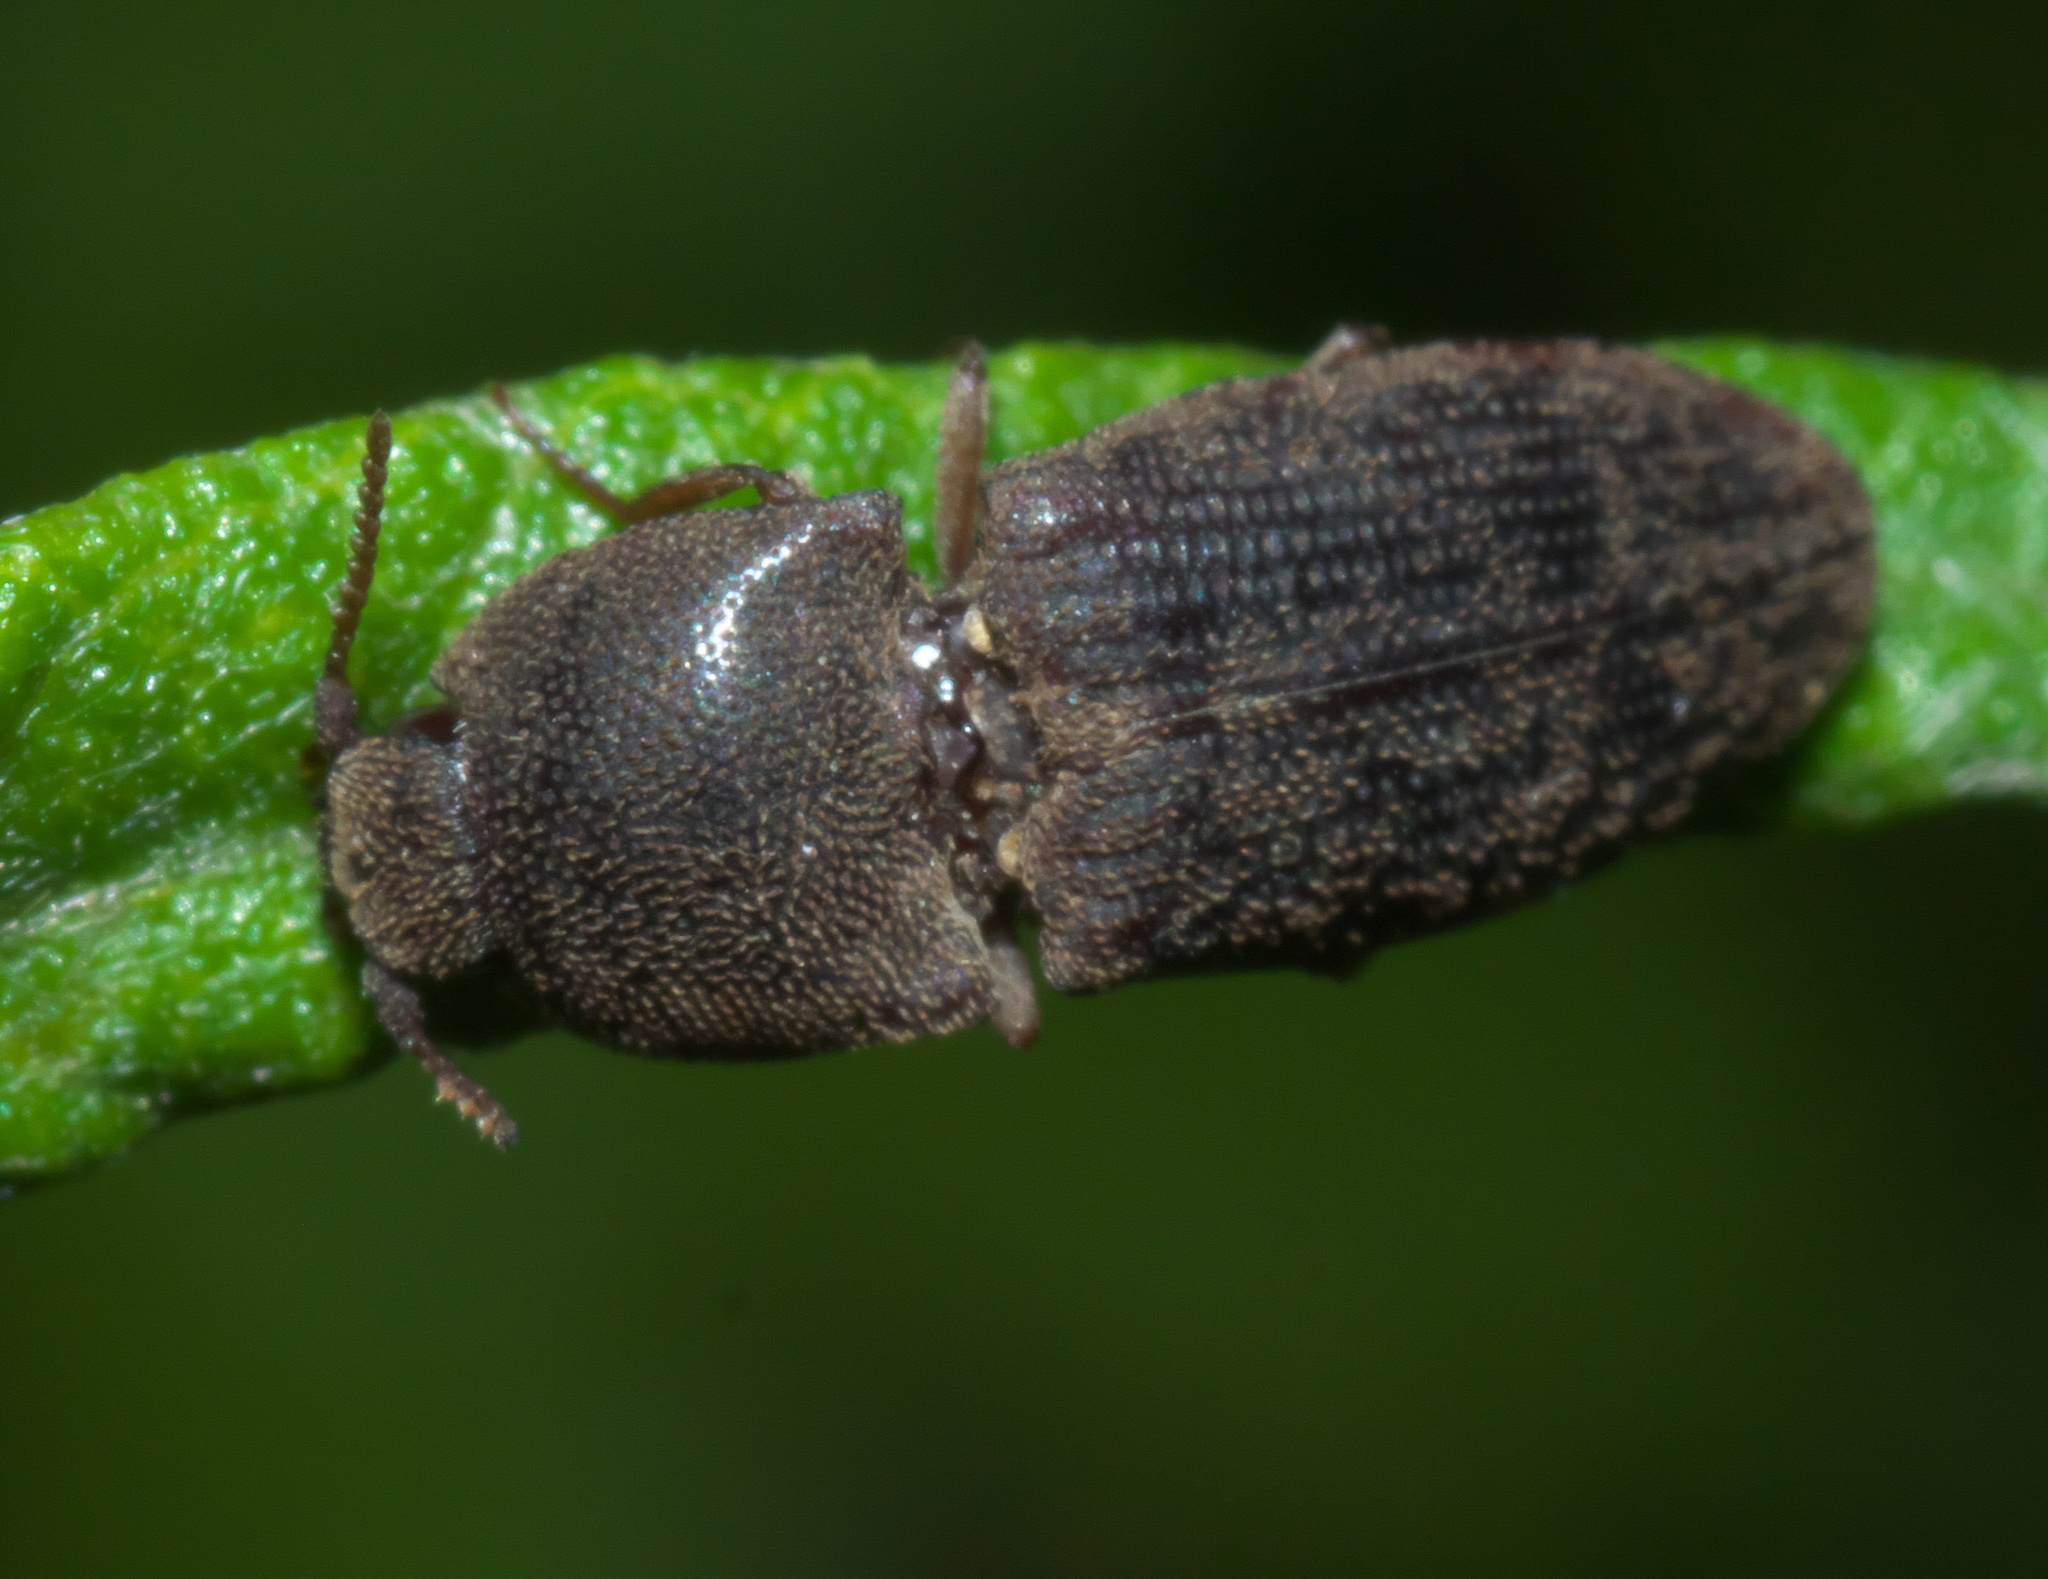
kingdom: Animalia
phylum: Arthropoda
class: Insecta
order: Coleoptera
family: Elateridae
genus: Agrypnus
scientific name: Agrypnus rectangularis
